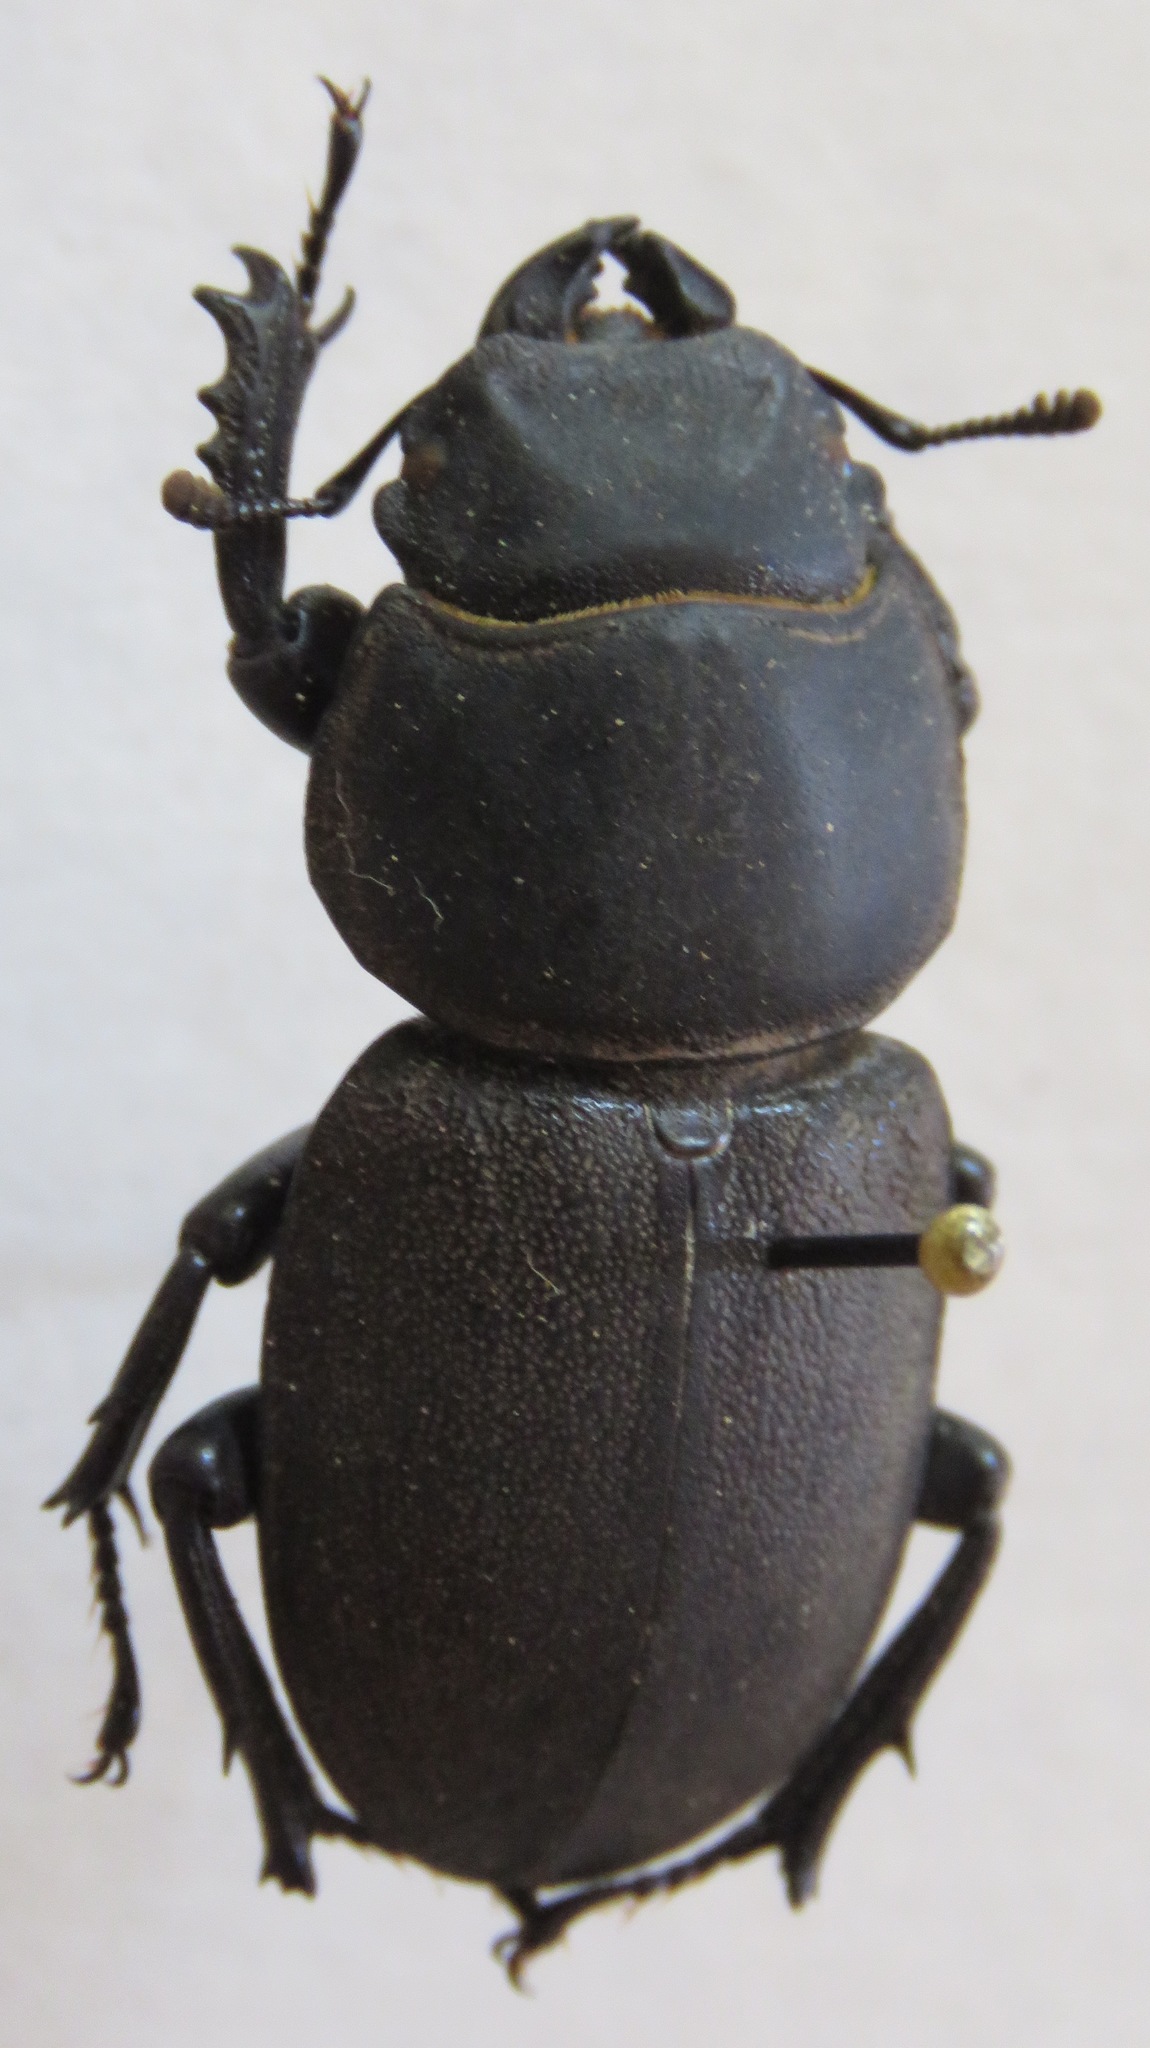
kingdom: Animalia
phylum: Arthropoda
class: Insecta
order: Coleoptera
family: Lucanidae
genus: Apterodorcus
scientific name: Apterodorcus bacchus
